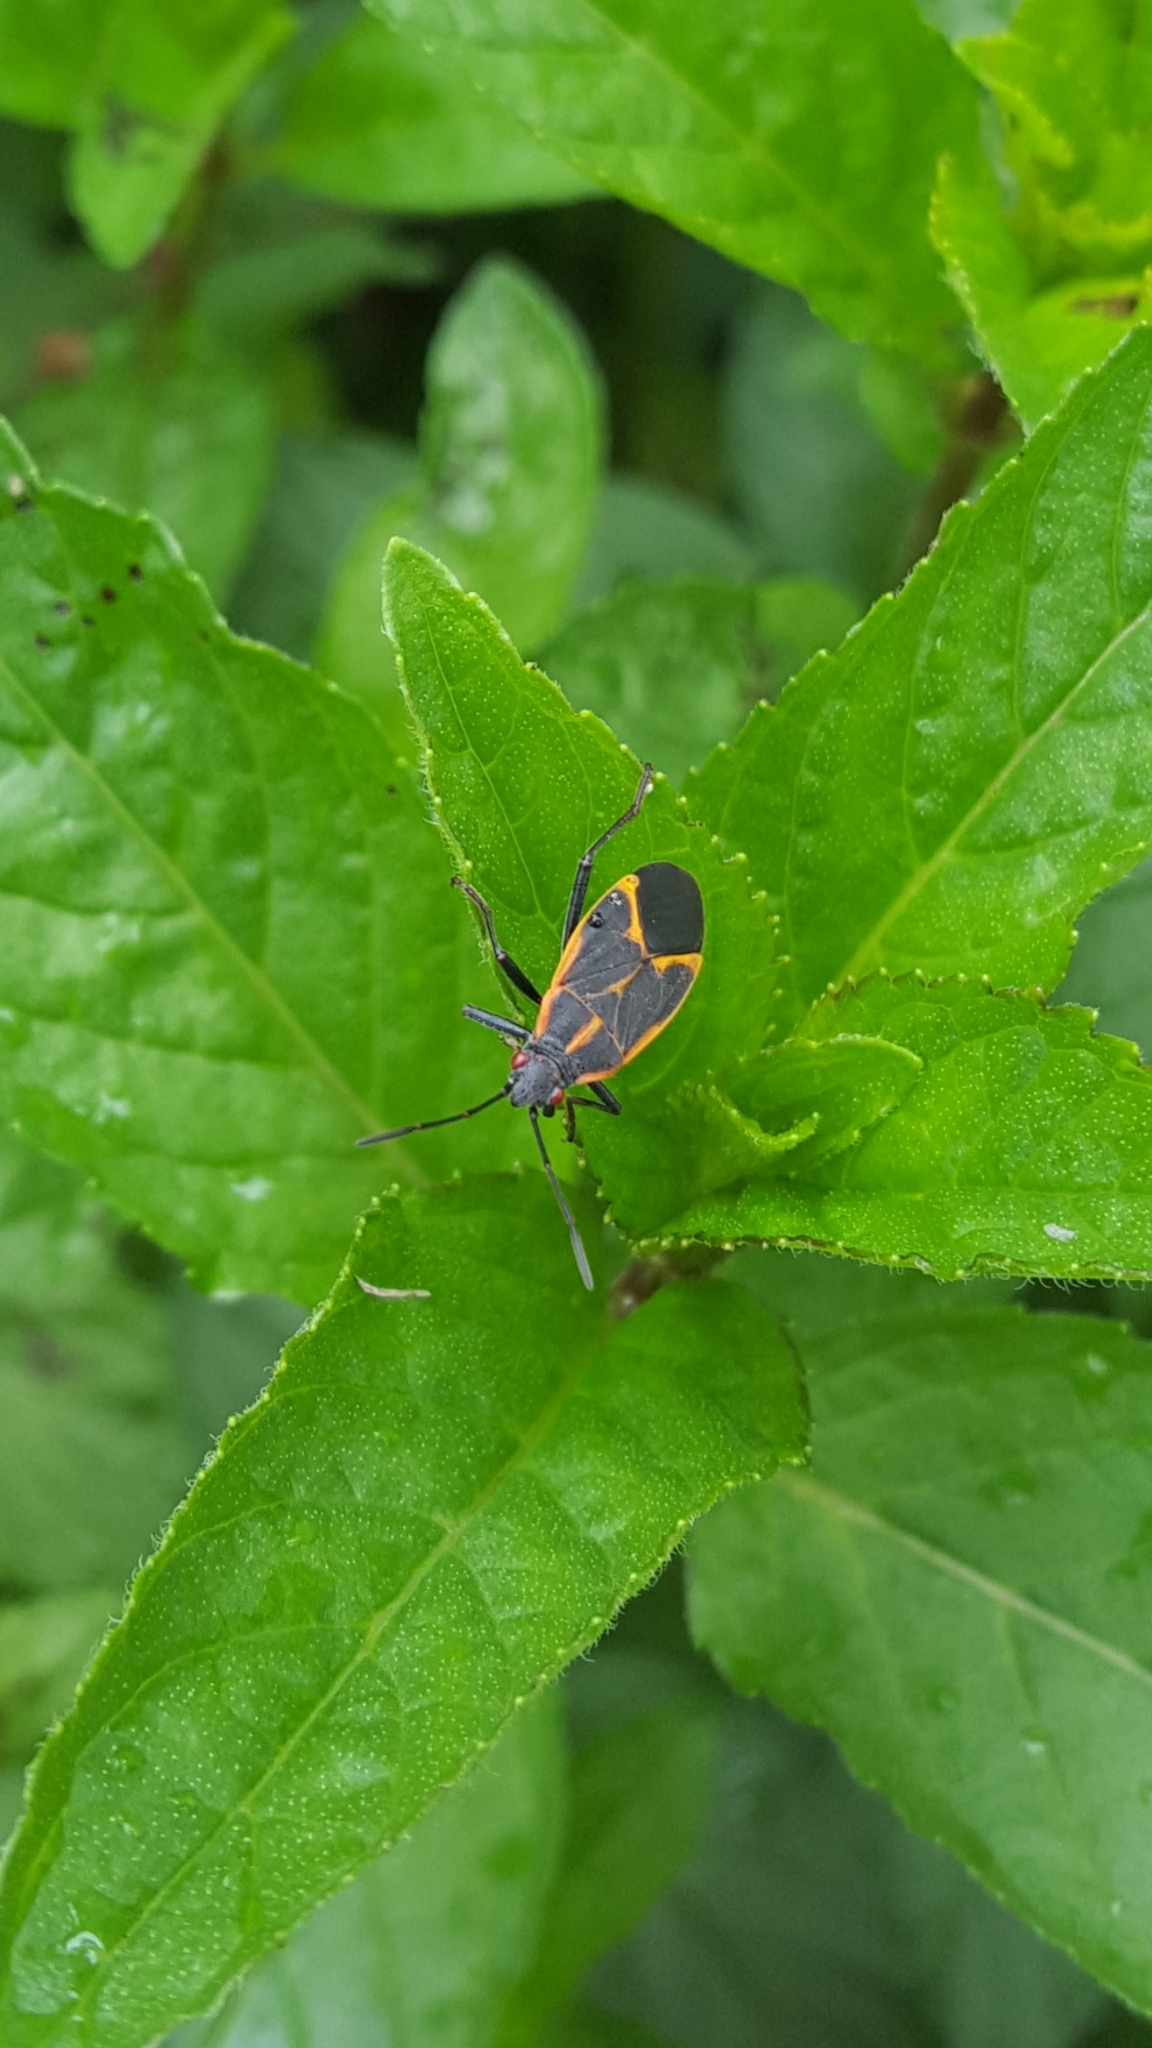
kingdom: Animalia
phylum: Arthropoda
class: Insecta
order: Hemiptera
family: Rhopalidae
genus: Boisea
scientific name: Boisea trivittata
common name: Boxelder bug
